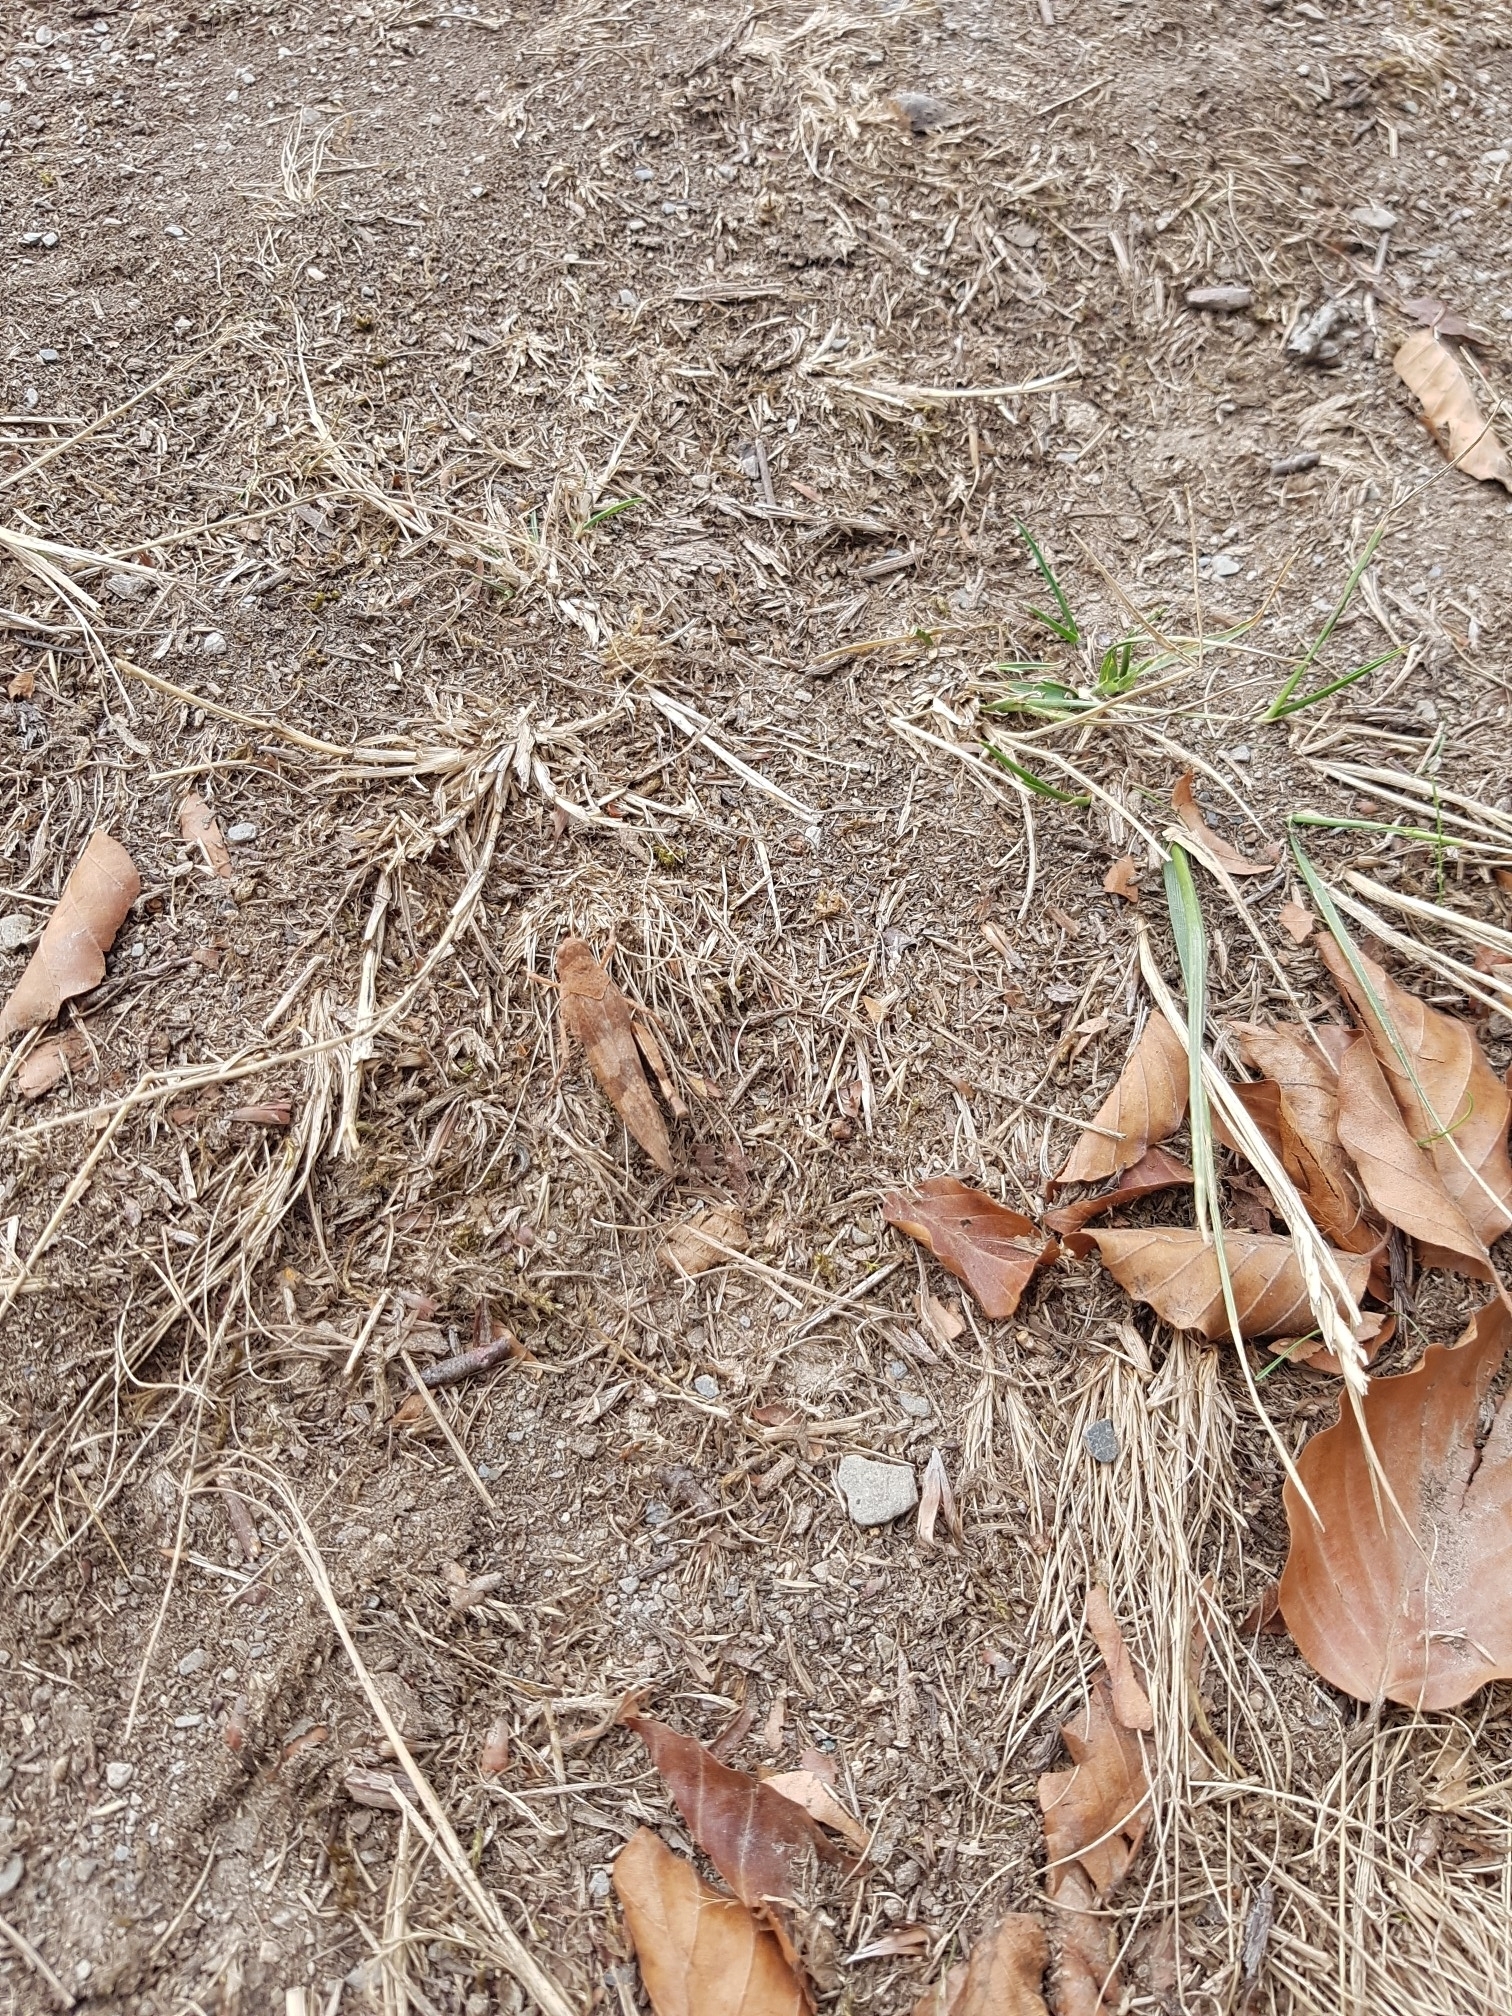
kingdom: Animalia
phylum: Arthropoda
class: Insecta
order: Orthoptera
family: Acrididae
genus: Oedipoda
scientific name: Oedipoda caerulescens
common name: Blue-winged grasshopper
